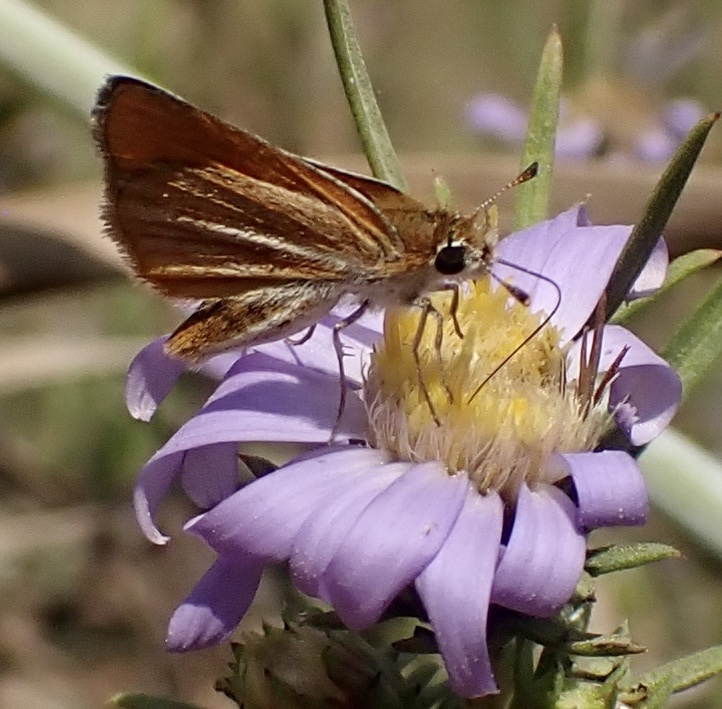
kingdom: Animalia
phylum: Arthropoda
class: Insecta
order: Lepidoptera
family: Hesperiidae
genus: Copaeodes
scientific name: Copaeodes minima
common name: Southern skipperling
